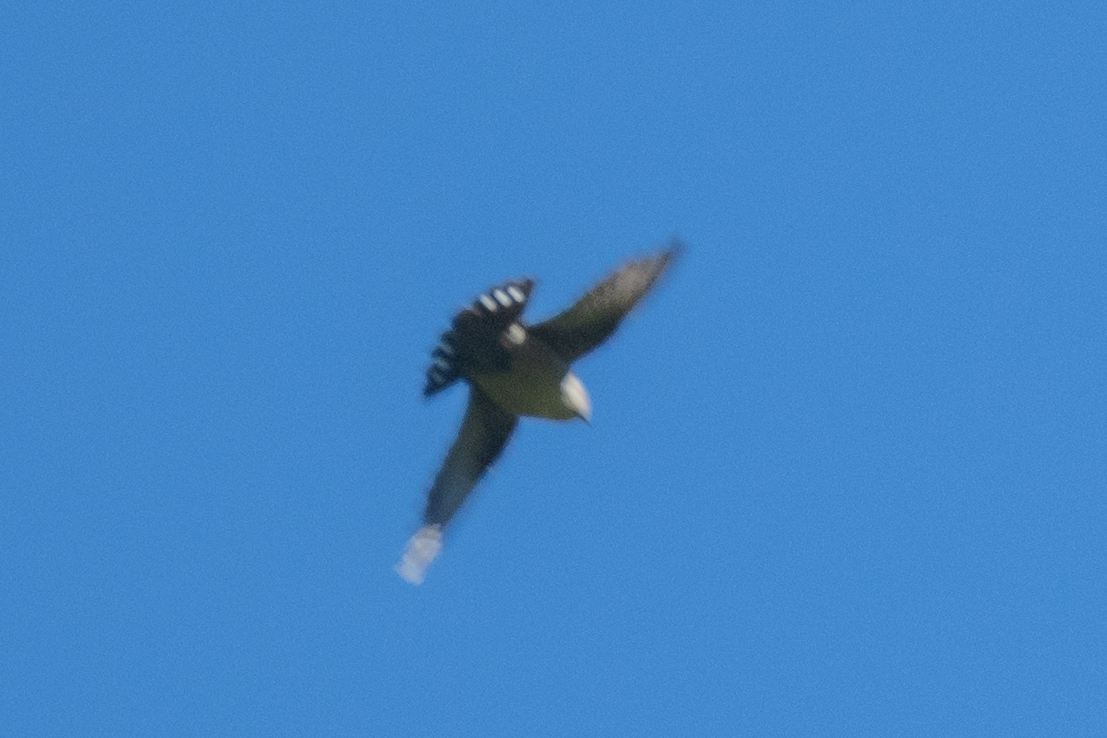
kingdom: Animalia
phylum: Chordata
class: Aves
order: Passeriformes
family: Hirundinidae
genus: Ptyonoprogne
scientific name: Ptyonoprogne rupestris
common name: Eurasian crag martin
